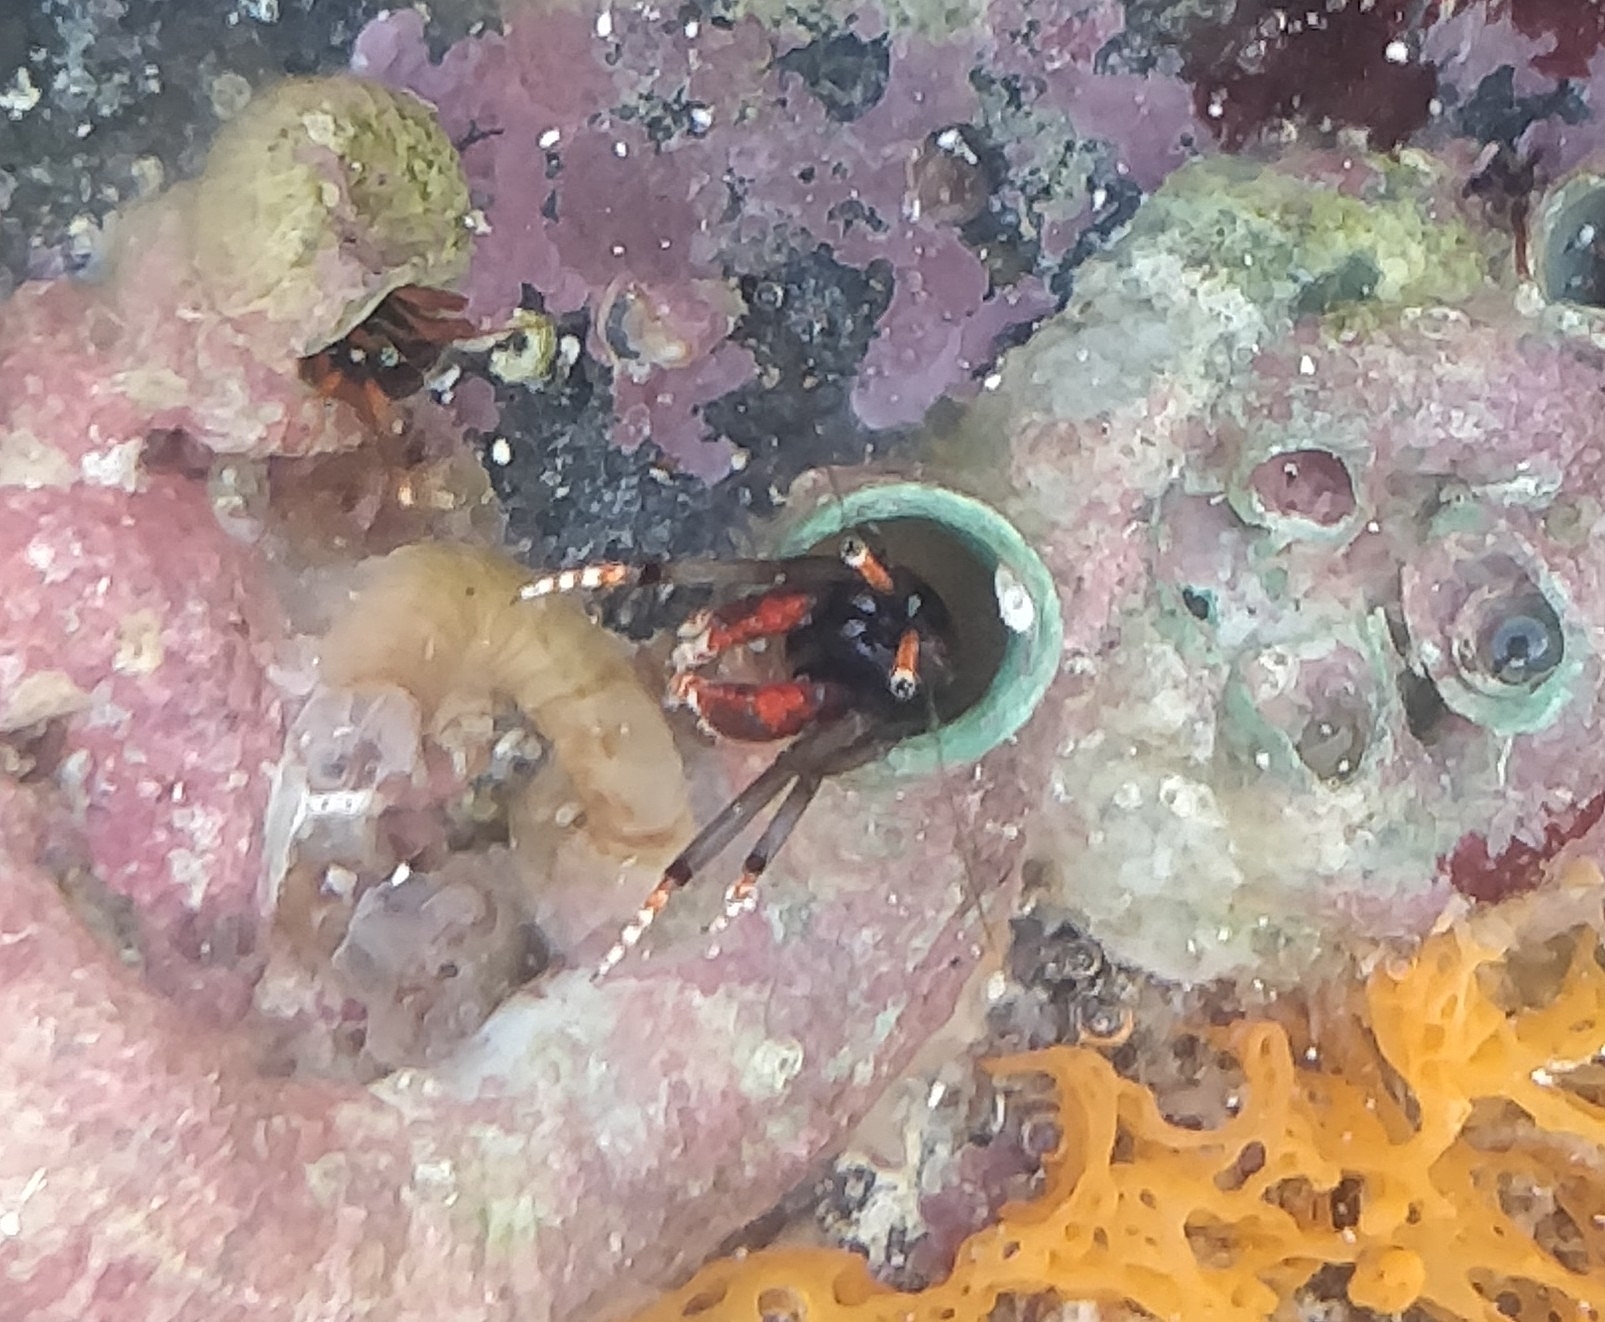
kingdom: Animalia
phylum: Arthropoda
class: Malacostraca
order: Decapoda
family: Diogenidae
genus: Calcinus
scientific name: Calcinus tubularis
